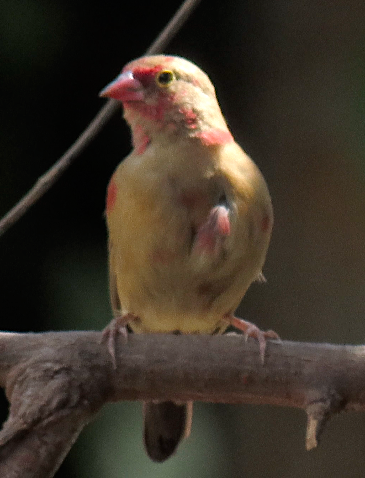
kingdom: Animalia
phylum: Chordata
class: Aves
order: Passeriformes
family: Estrildidae
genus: Lagonosticta
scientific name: Lagonosticta senegala
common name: Red-billed firefinch
